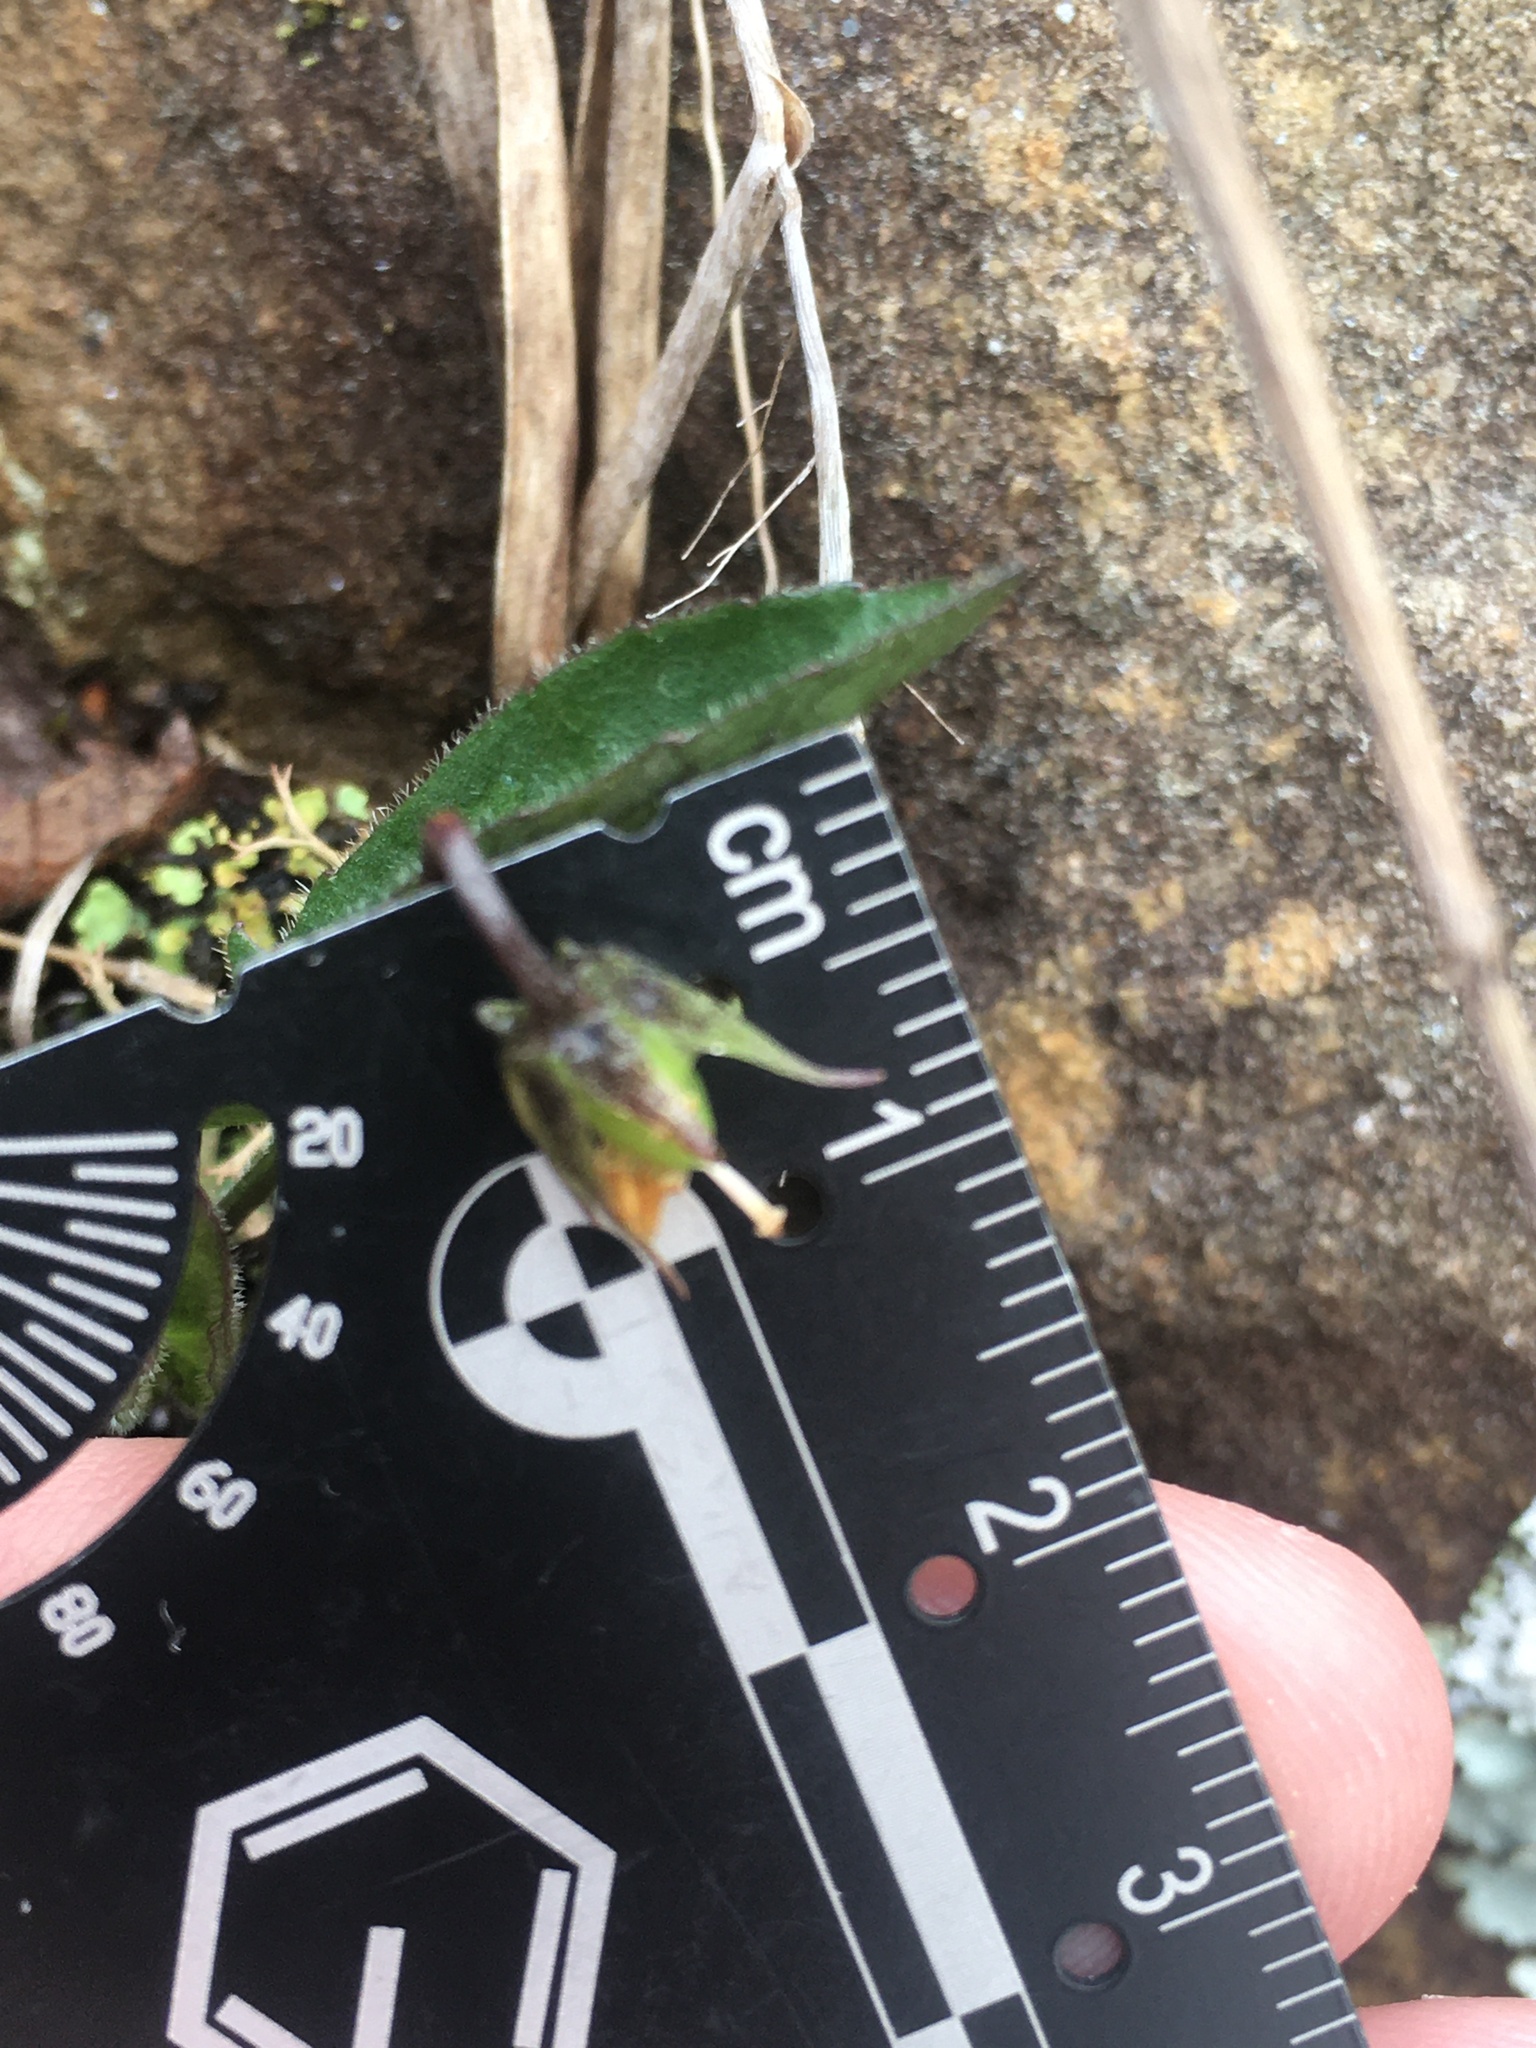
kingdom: Plantae
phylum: Tracheophyta
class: Magnoliopsida
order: Malpighiales
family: Violaceae
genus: Viola
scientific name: Viola sagittata
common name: Arrowhead violet
